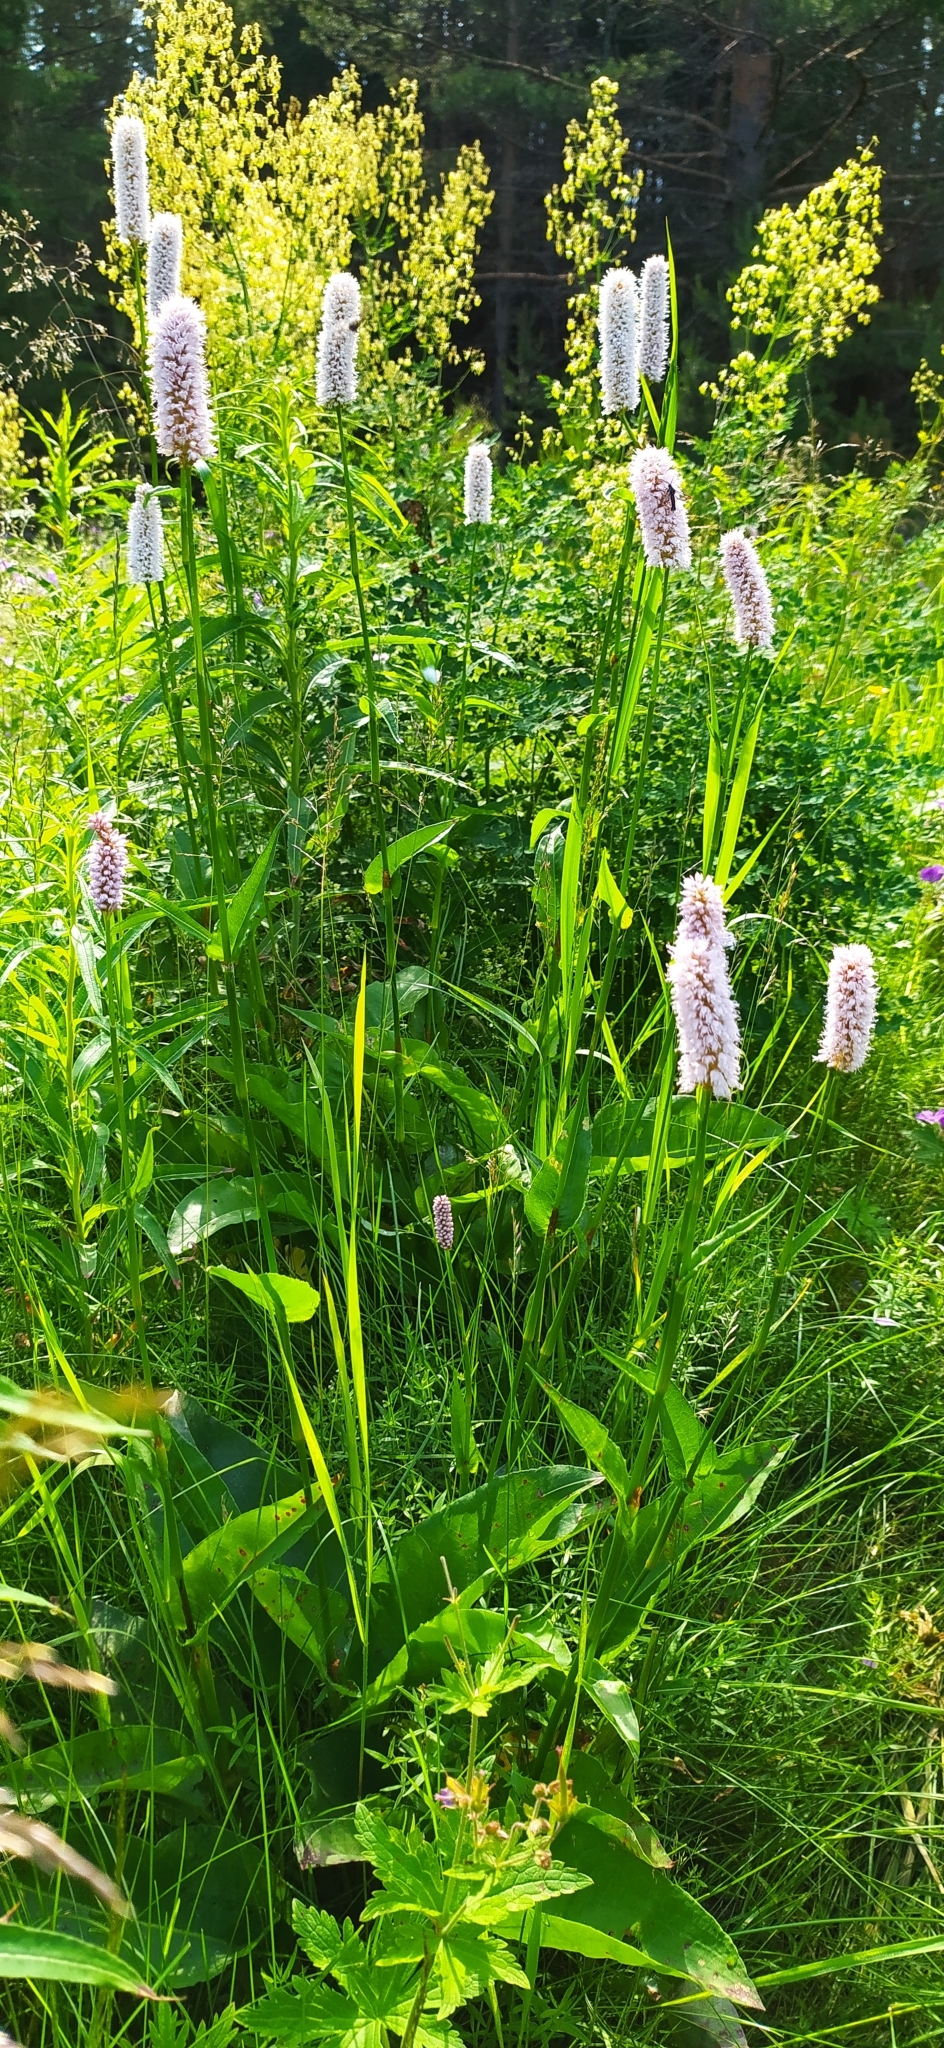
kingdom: Plantae
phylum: Tracheophyta
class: Magnoliopsida
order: Caryophyllales
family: Polygonaceae
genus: Bistorta
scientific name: Bistorta officinalis
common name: Common bistort
